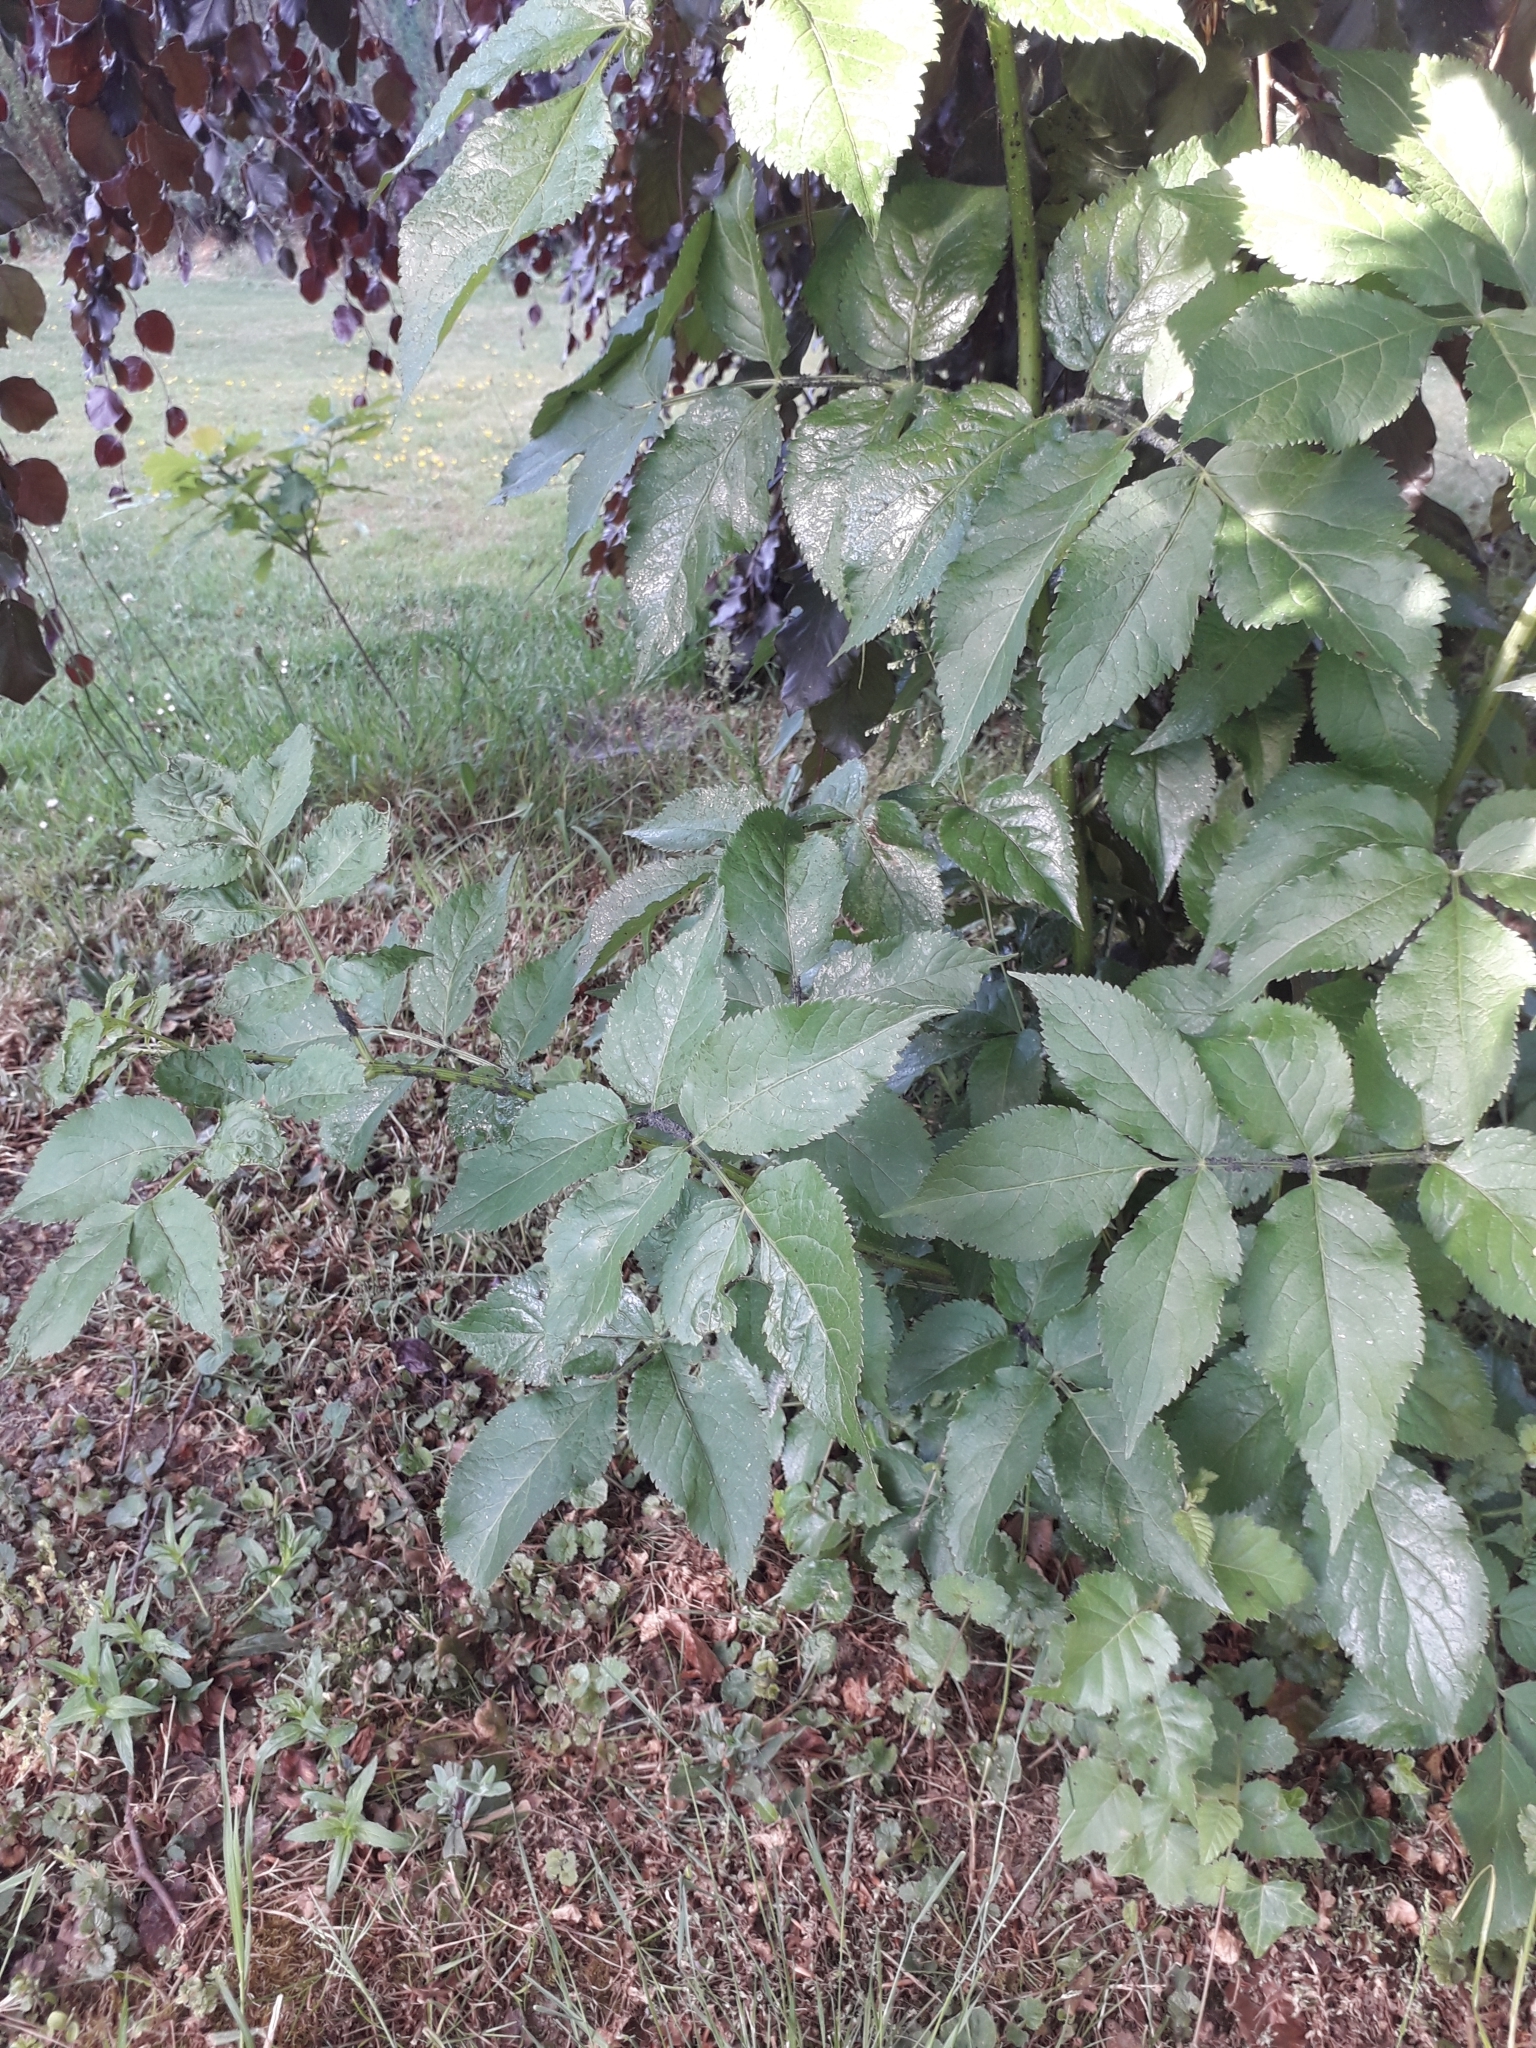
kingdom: Plantae
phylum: Tracheophyta
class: Magnoliopsida
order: Dipsacales
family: Viburnaceae
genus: Sambucus
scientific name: Sambucus nigra
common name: Elder
